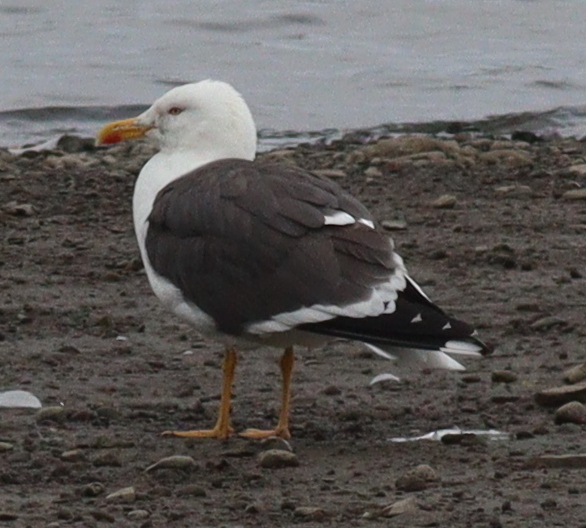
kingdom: Animalia
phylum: Chordata
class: Aves
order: Charadriiformes
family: Laridae
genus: Larus
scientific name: Larus fuscus
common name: Lesser black-backed gull
